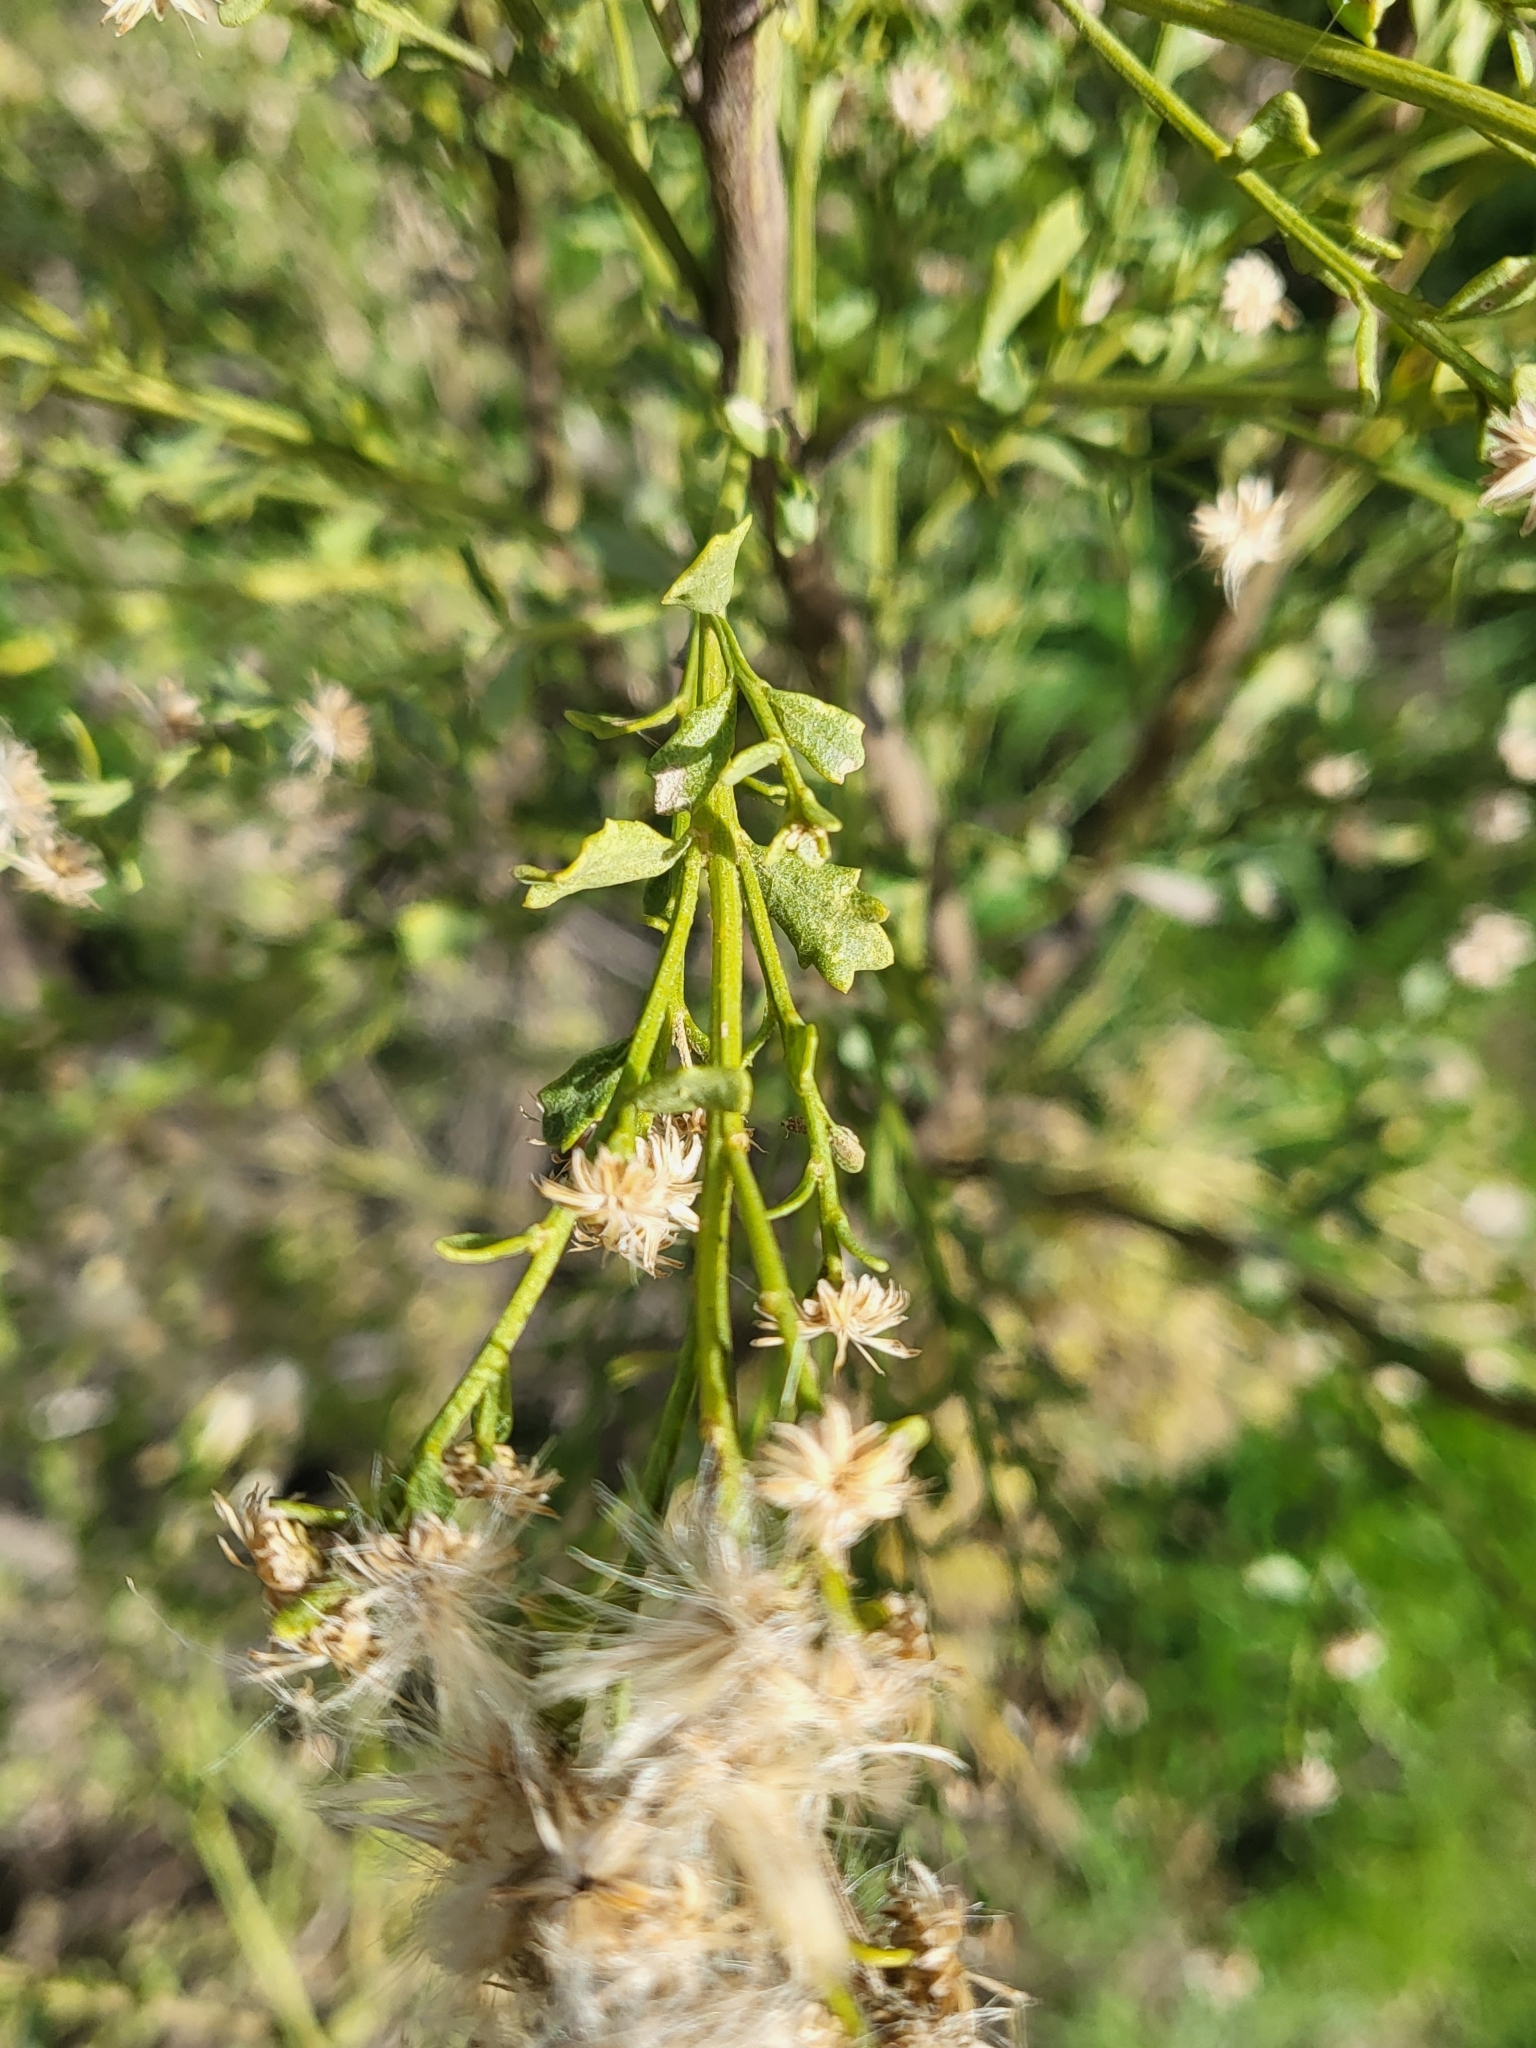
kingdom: Plantae
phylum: Tracheophyta
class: Magnoliopsida
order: Asterales
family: Asteraceae
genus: Baccharis
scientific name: Baccharis pilularis
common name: Coyotebrush
